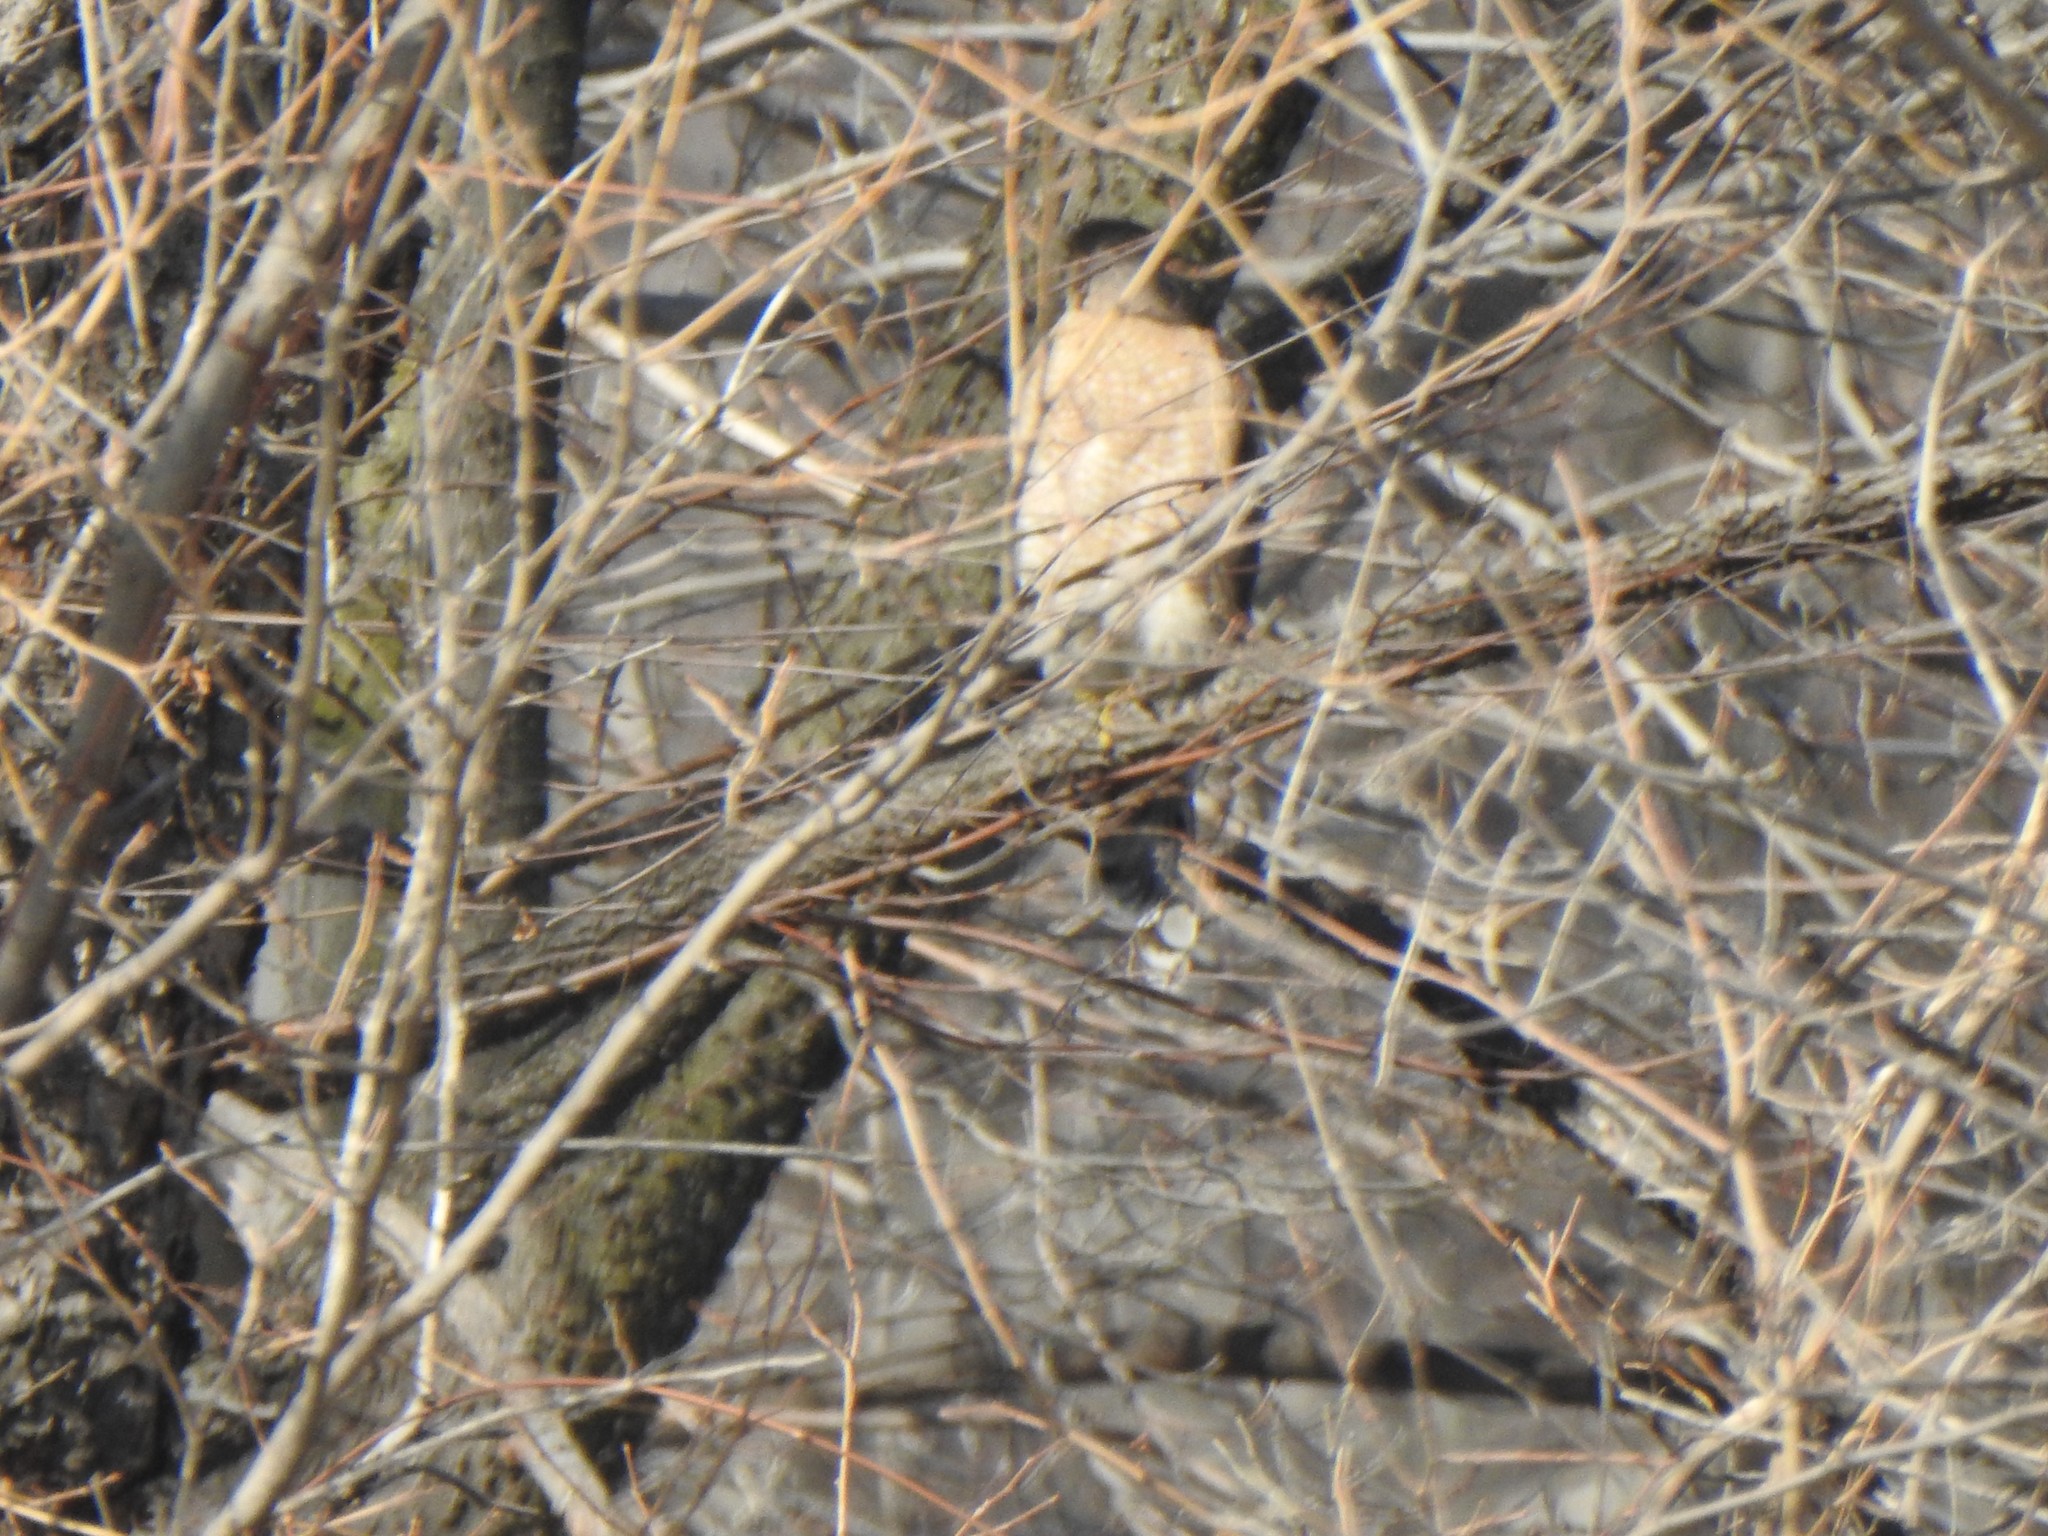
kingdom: Animalia
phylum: Chordata
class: Aves
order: Accipitriformes
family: Accipitridae
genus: Accipiter
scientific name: Accipiter cooperii
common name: Cooper's hawk
